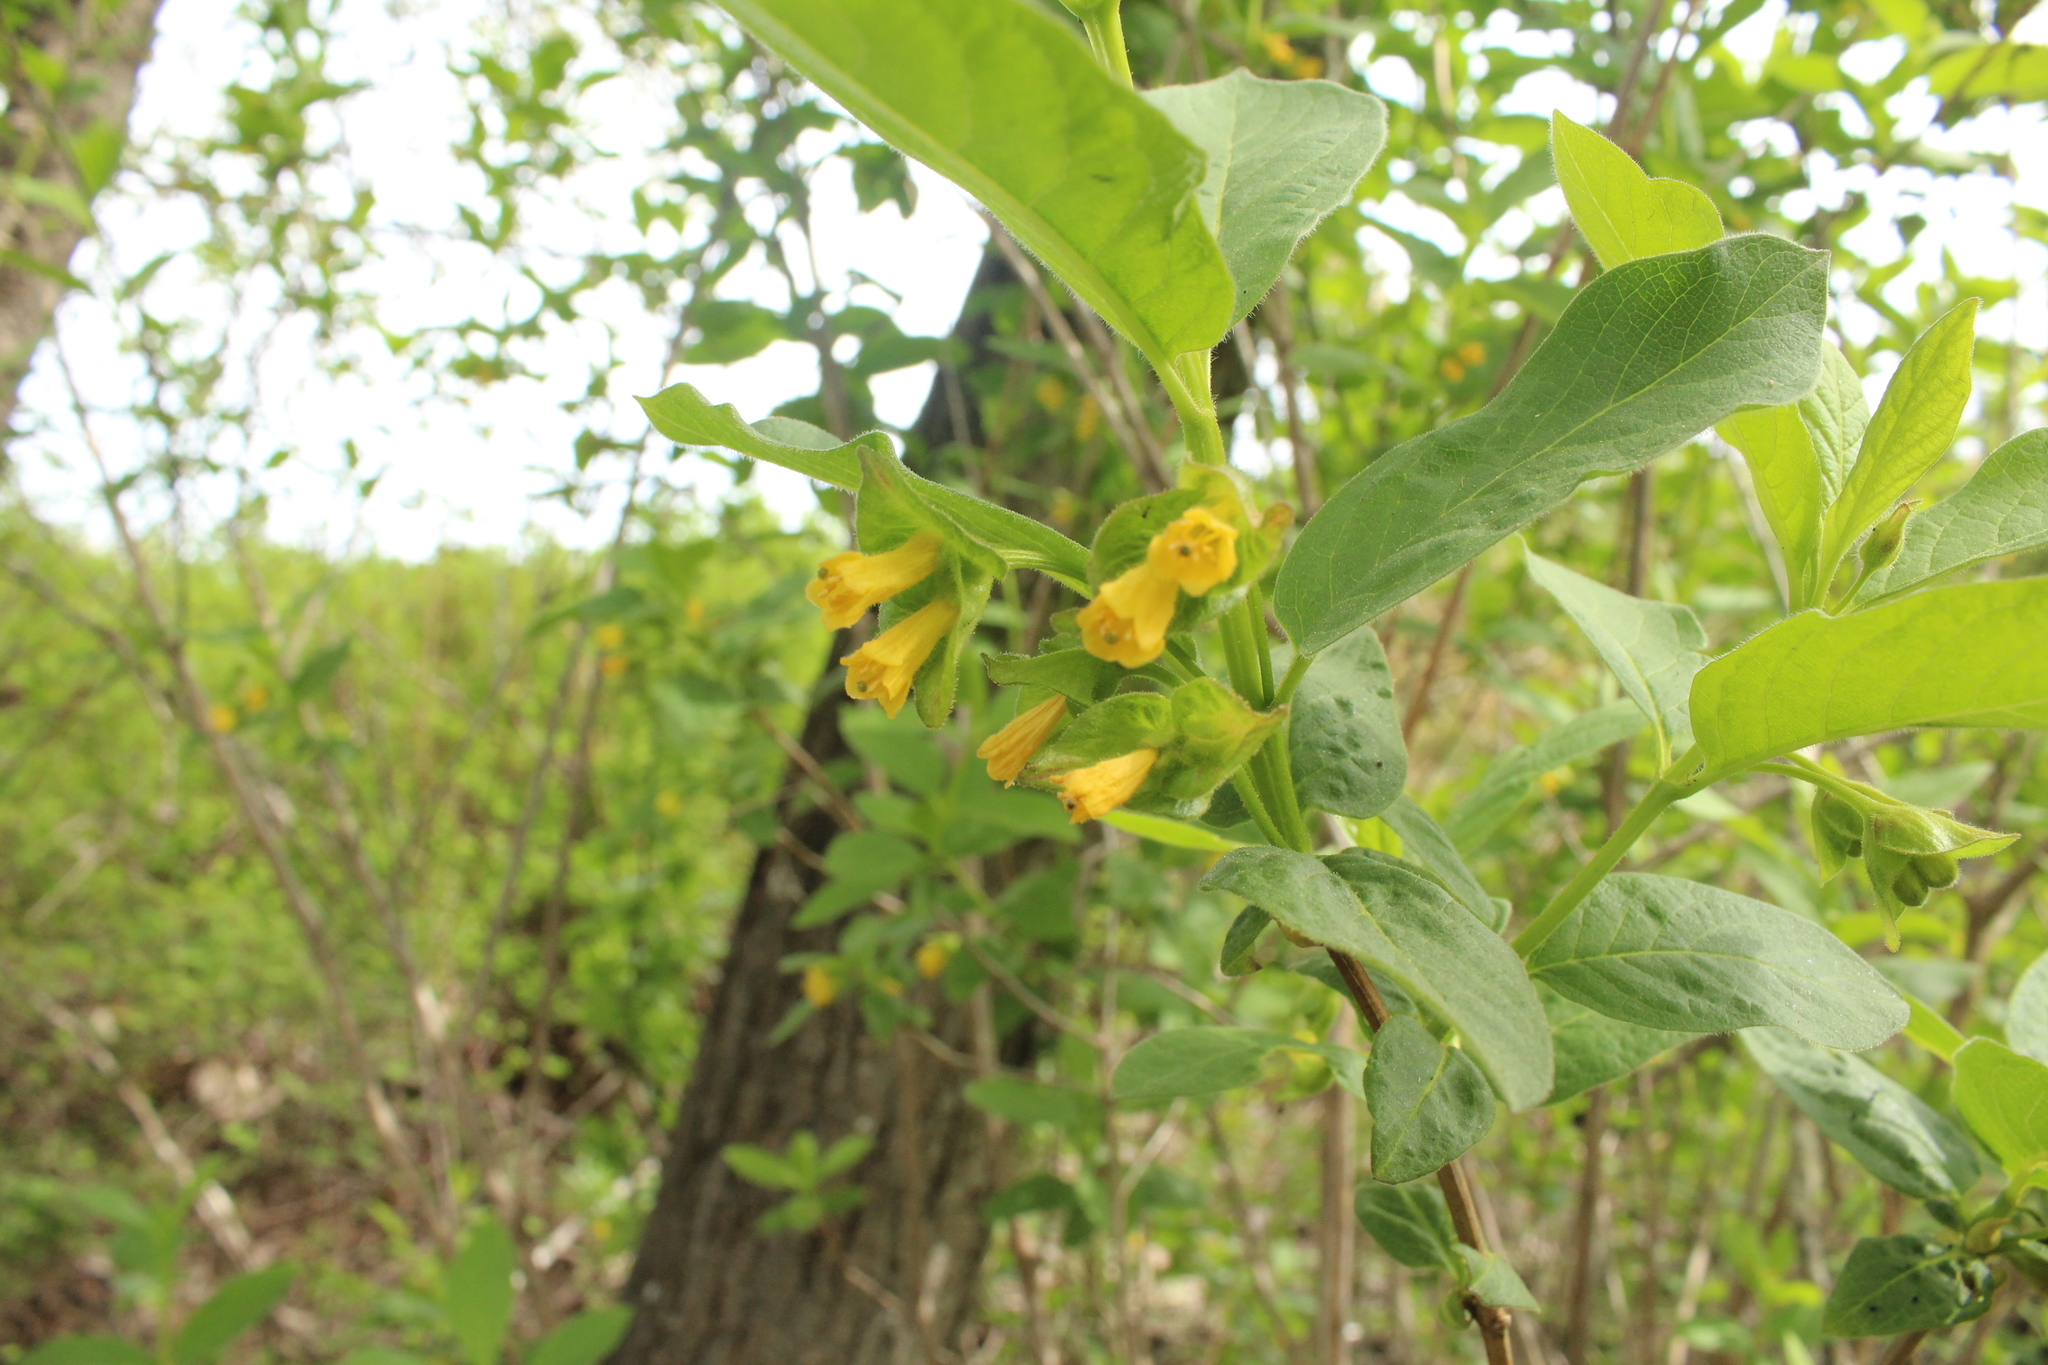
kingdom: Plantae
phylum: Tracheophyta
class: Magnoliopsida
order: Dipsacales
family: Caprifoliaceae
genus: Lonicera
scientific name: Lonicera involucrata
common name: Californian honeysuckle
